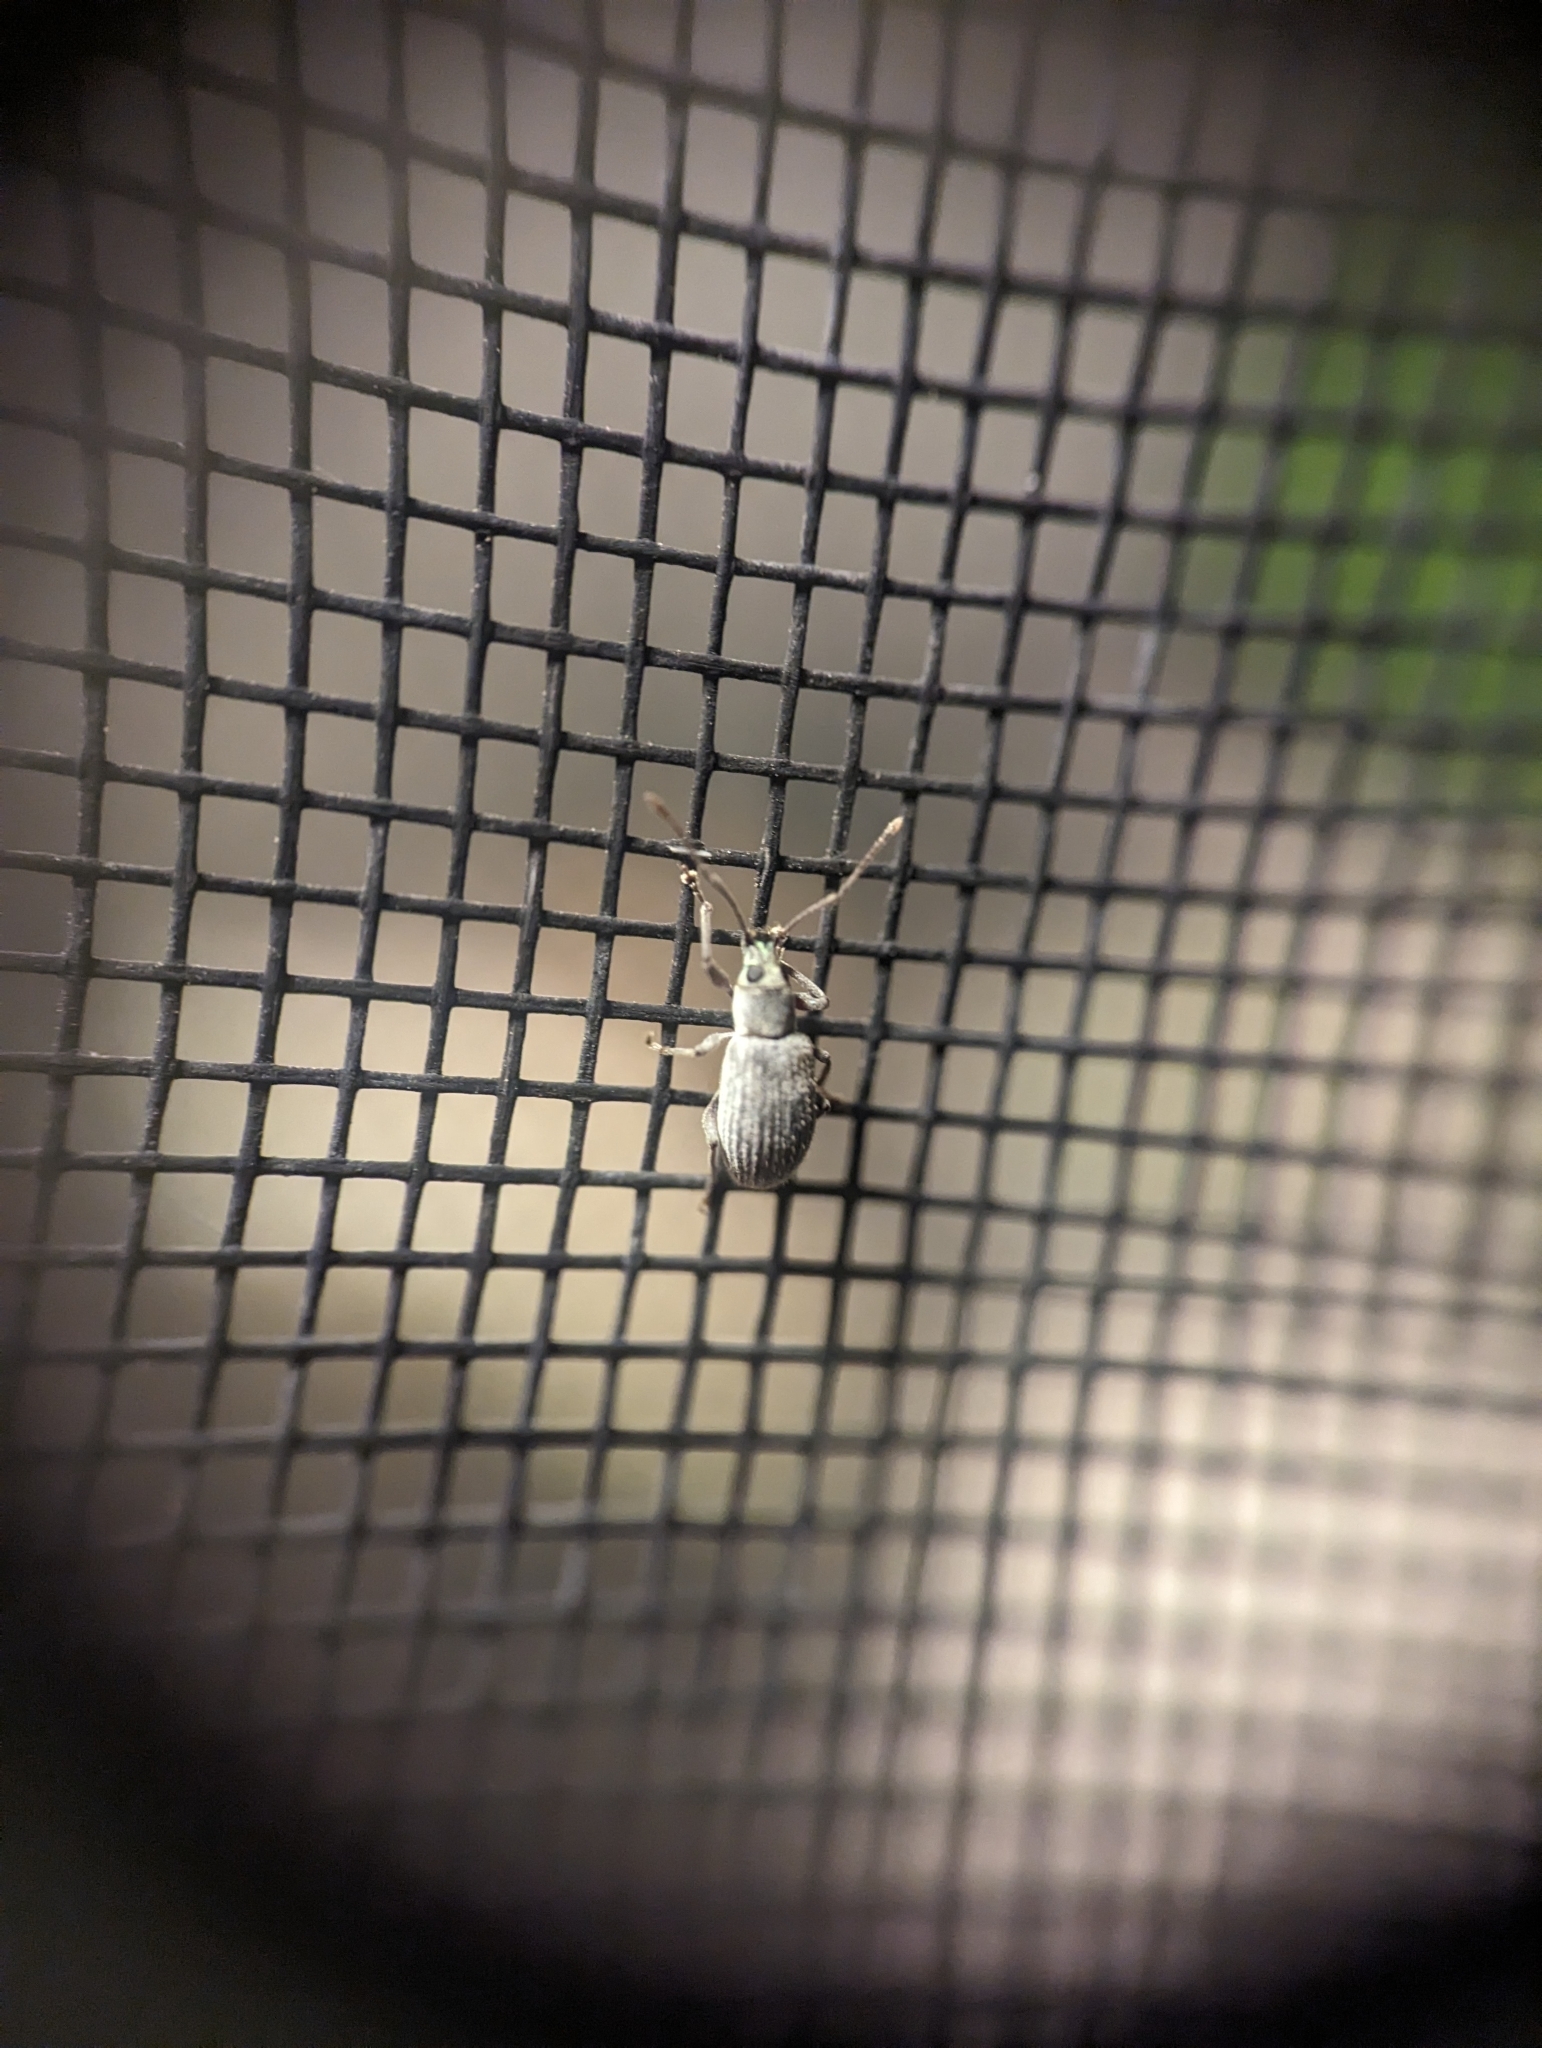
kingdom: Animalia
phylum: Arthropoda
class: Insecta
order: Coleoptera
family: Curculionidae
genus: Cyrtepistomus
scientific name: Cyrtepistomus castaneus
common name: Weevil
